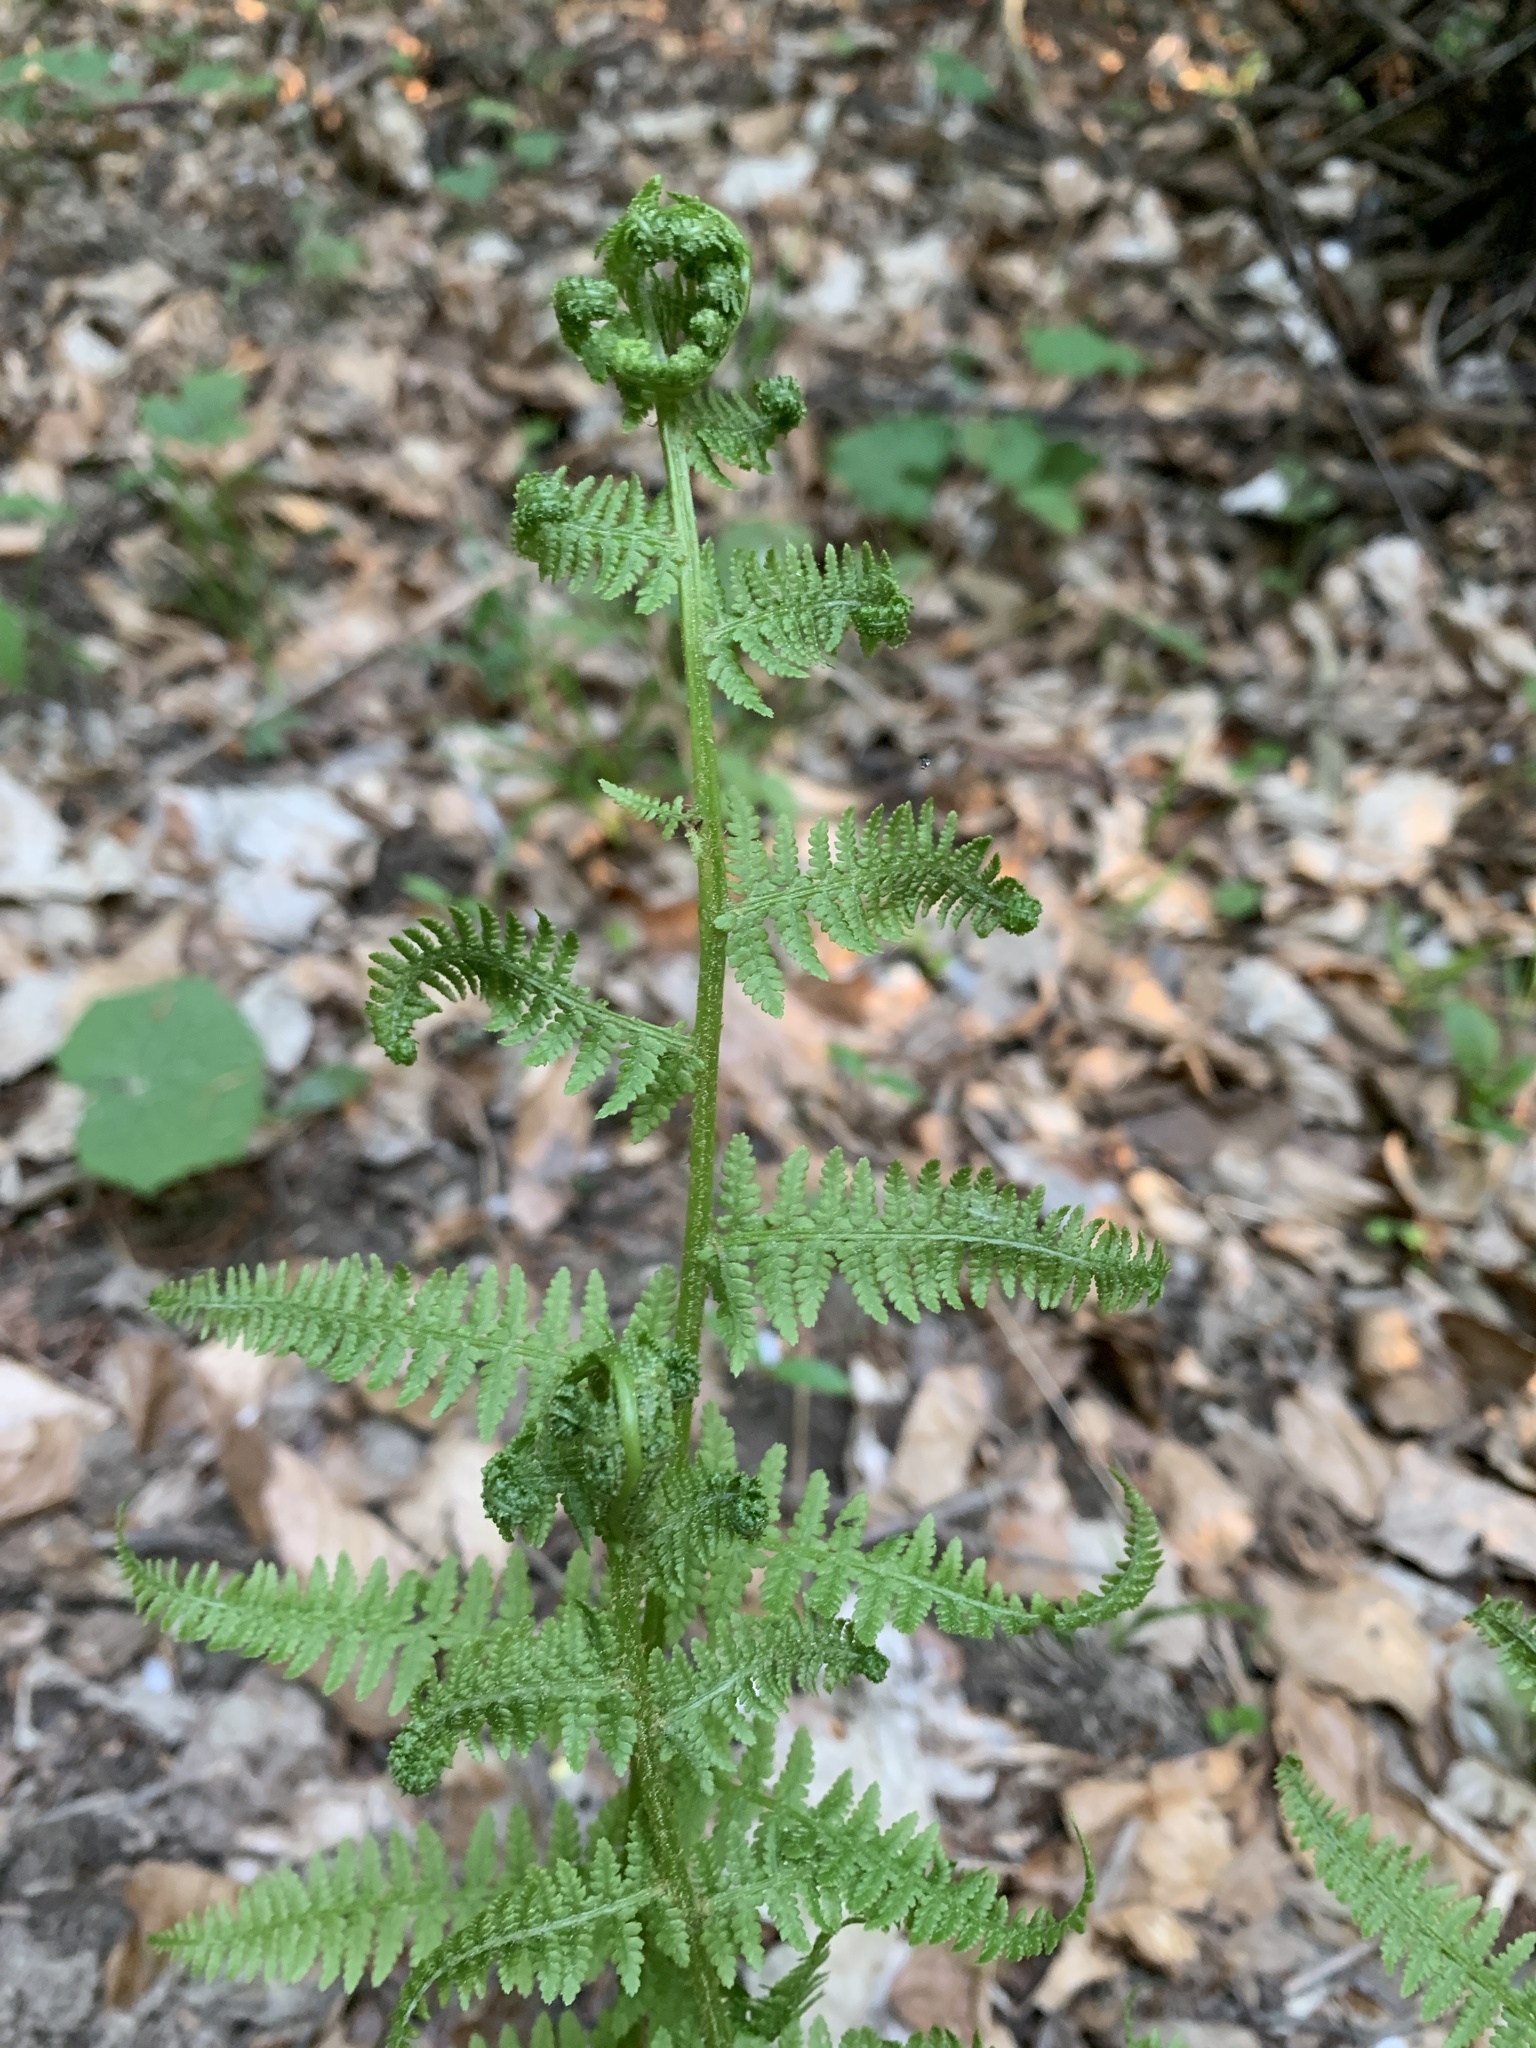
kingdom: Plantae
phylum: Tracheophyta
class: Polypodiopsida
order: Polypodiales
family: Athyriaceae
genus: Athyrium
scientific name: Athyrium filix-femina
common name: Lady fern
